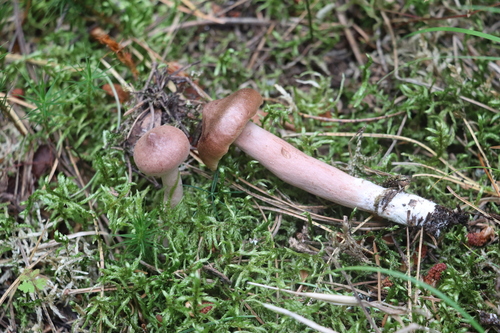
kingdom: Fungi
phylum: Basidiomycota
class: Agaricomycetes
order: Russulales
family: Russulaceae
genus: Lactarius
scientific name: Lactarius rufus
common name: Rufous milk-cap
